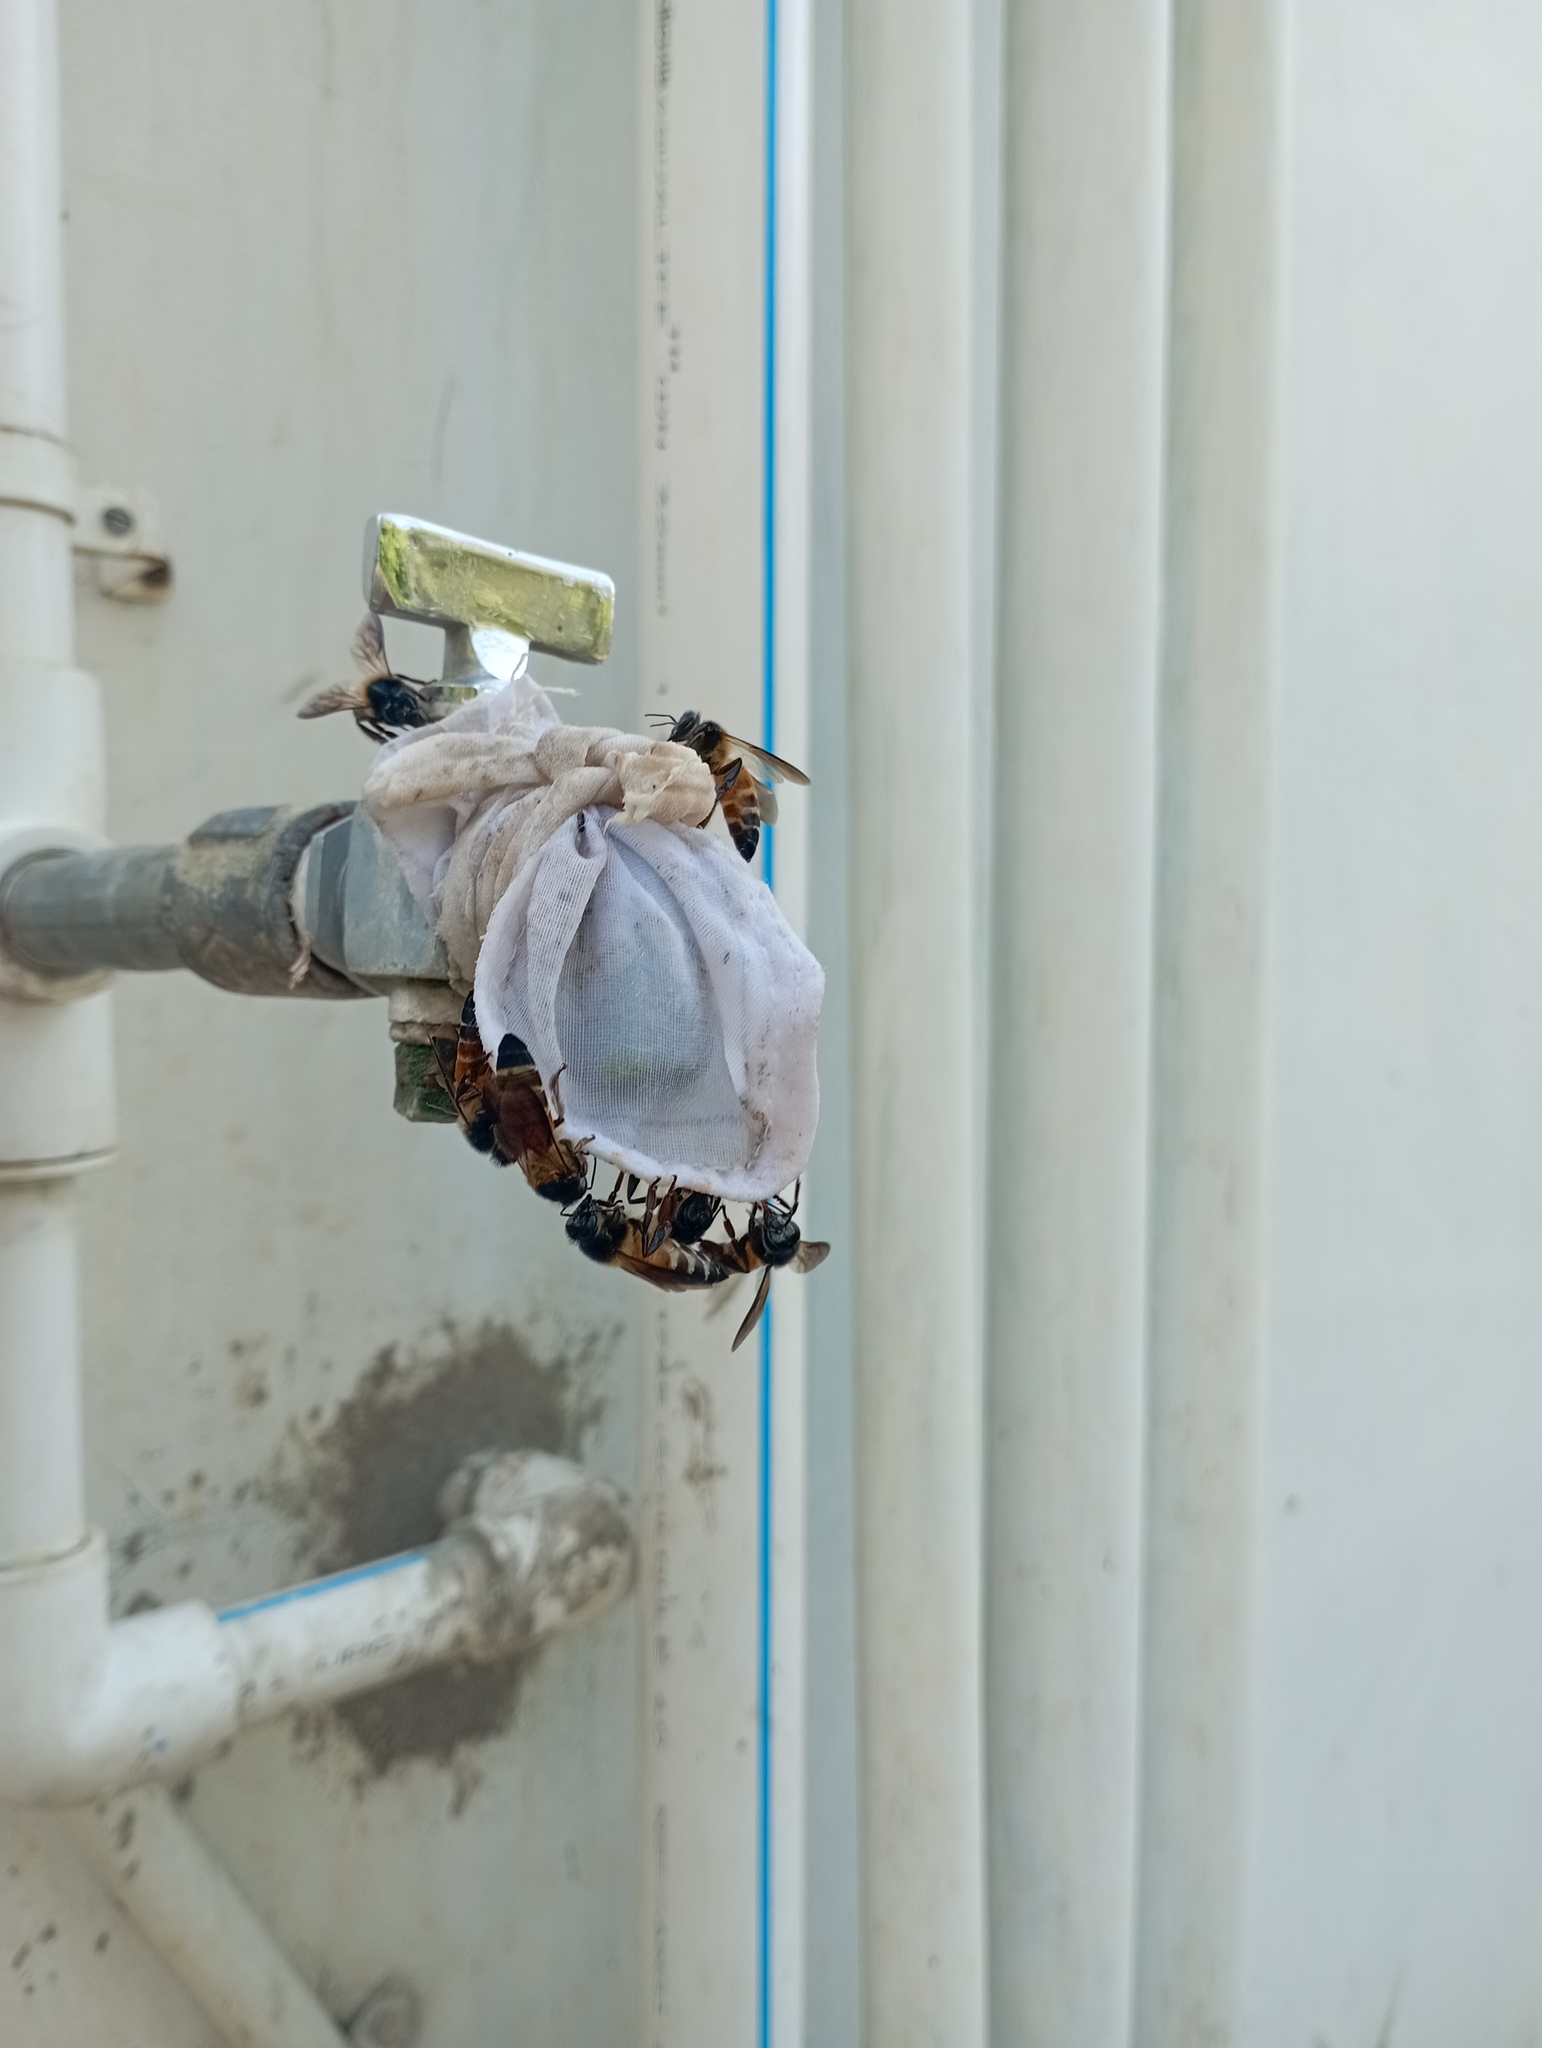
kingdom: Animalia
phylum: Arthropoda
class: Insecta
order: Hymenoptera
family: Apidae
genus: Apis
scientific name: Apis dorsata
